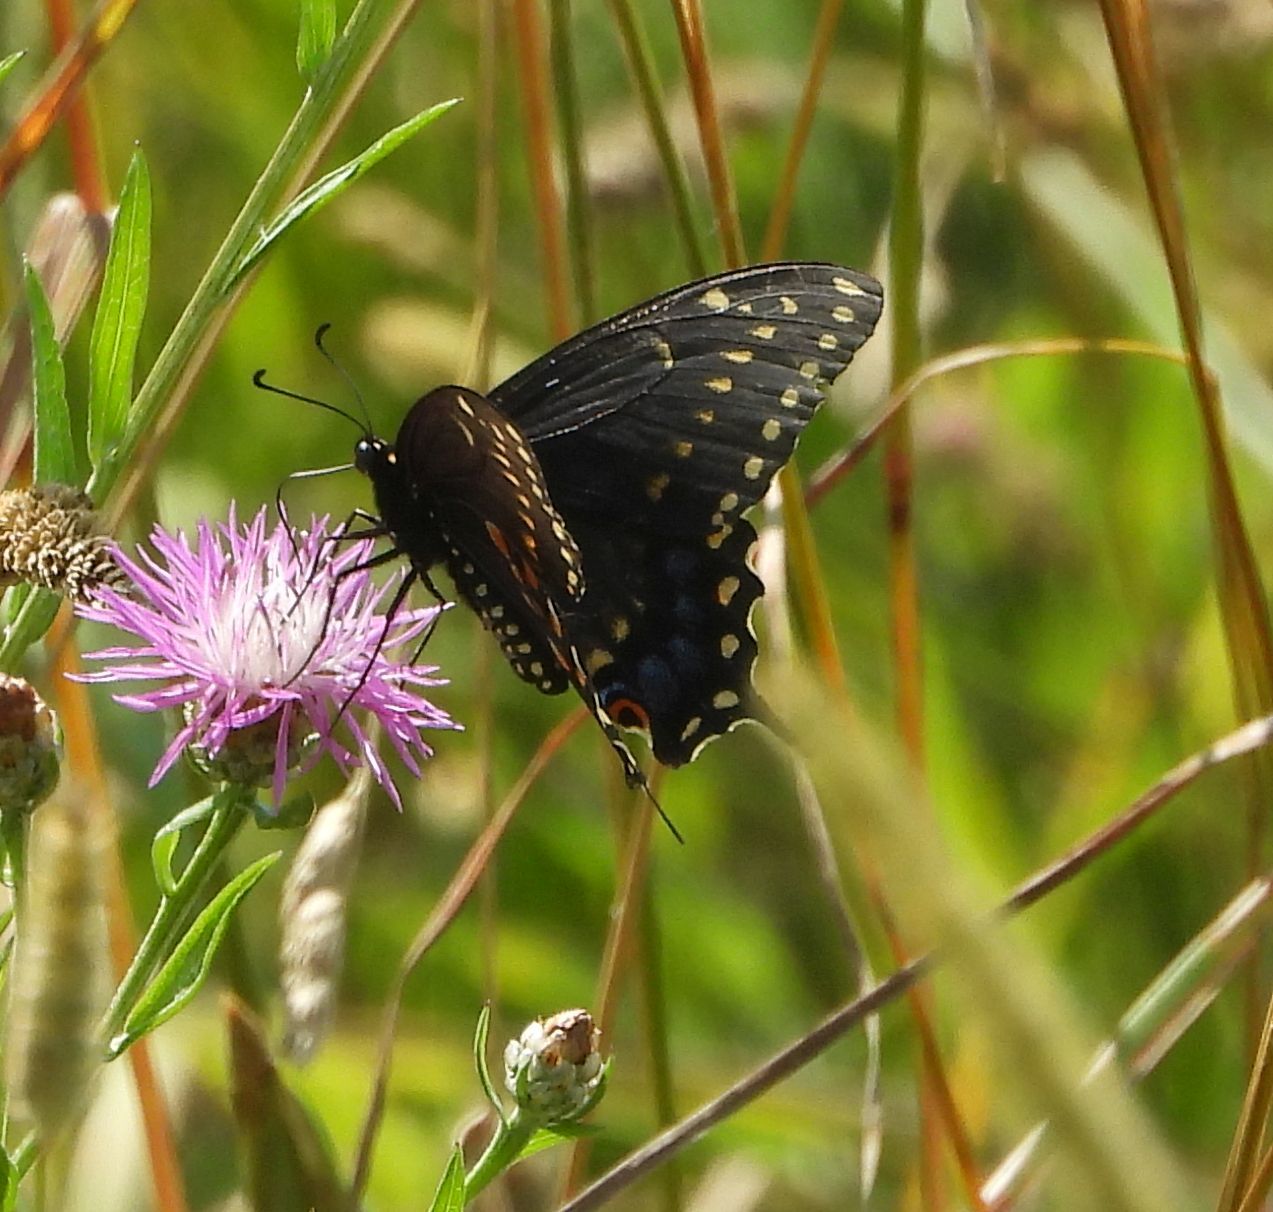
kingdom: Animalia
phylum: Arthropoda
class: Insecta
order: Lepidoptera
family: Papilionidae
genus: Papilio
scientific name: Papilio polyxenes
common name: Black swallowtail
